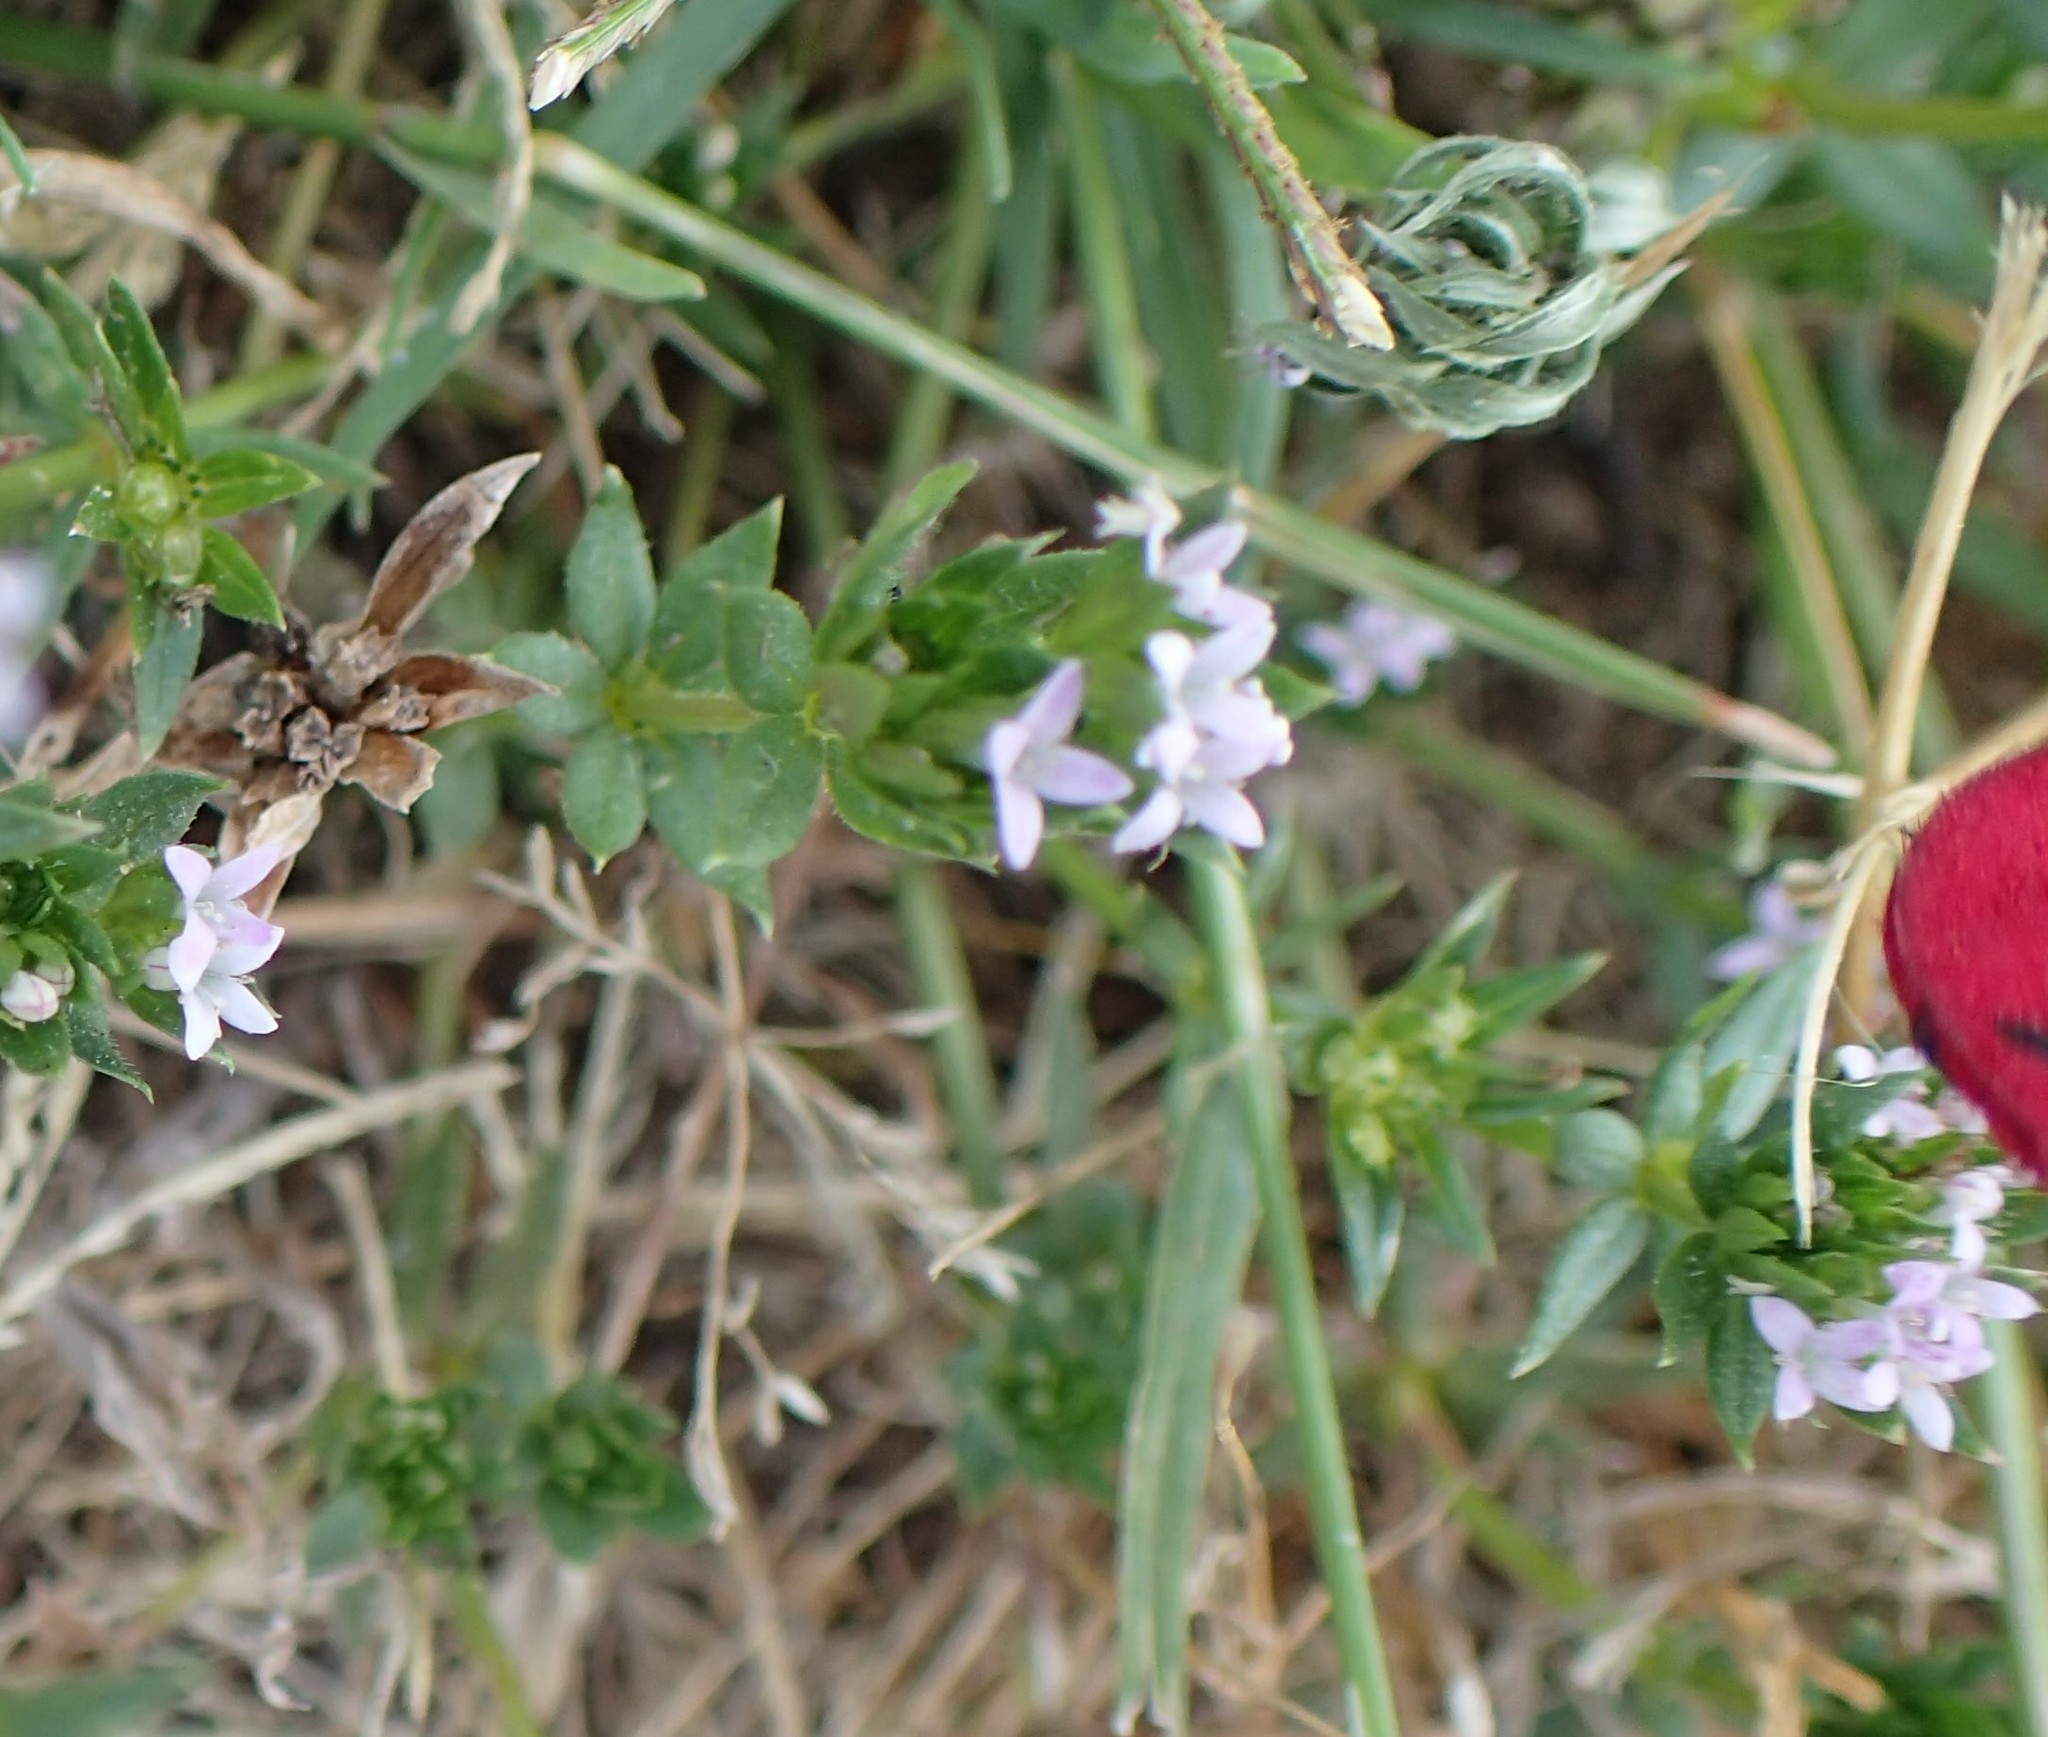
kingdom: Plantae
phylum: Tracheophyta
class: Magnoliopsida
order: Gentianales
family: Rubiaceae
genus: Sherardia
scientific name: Sherardia arvensis
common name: Field madder
